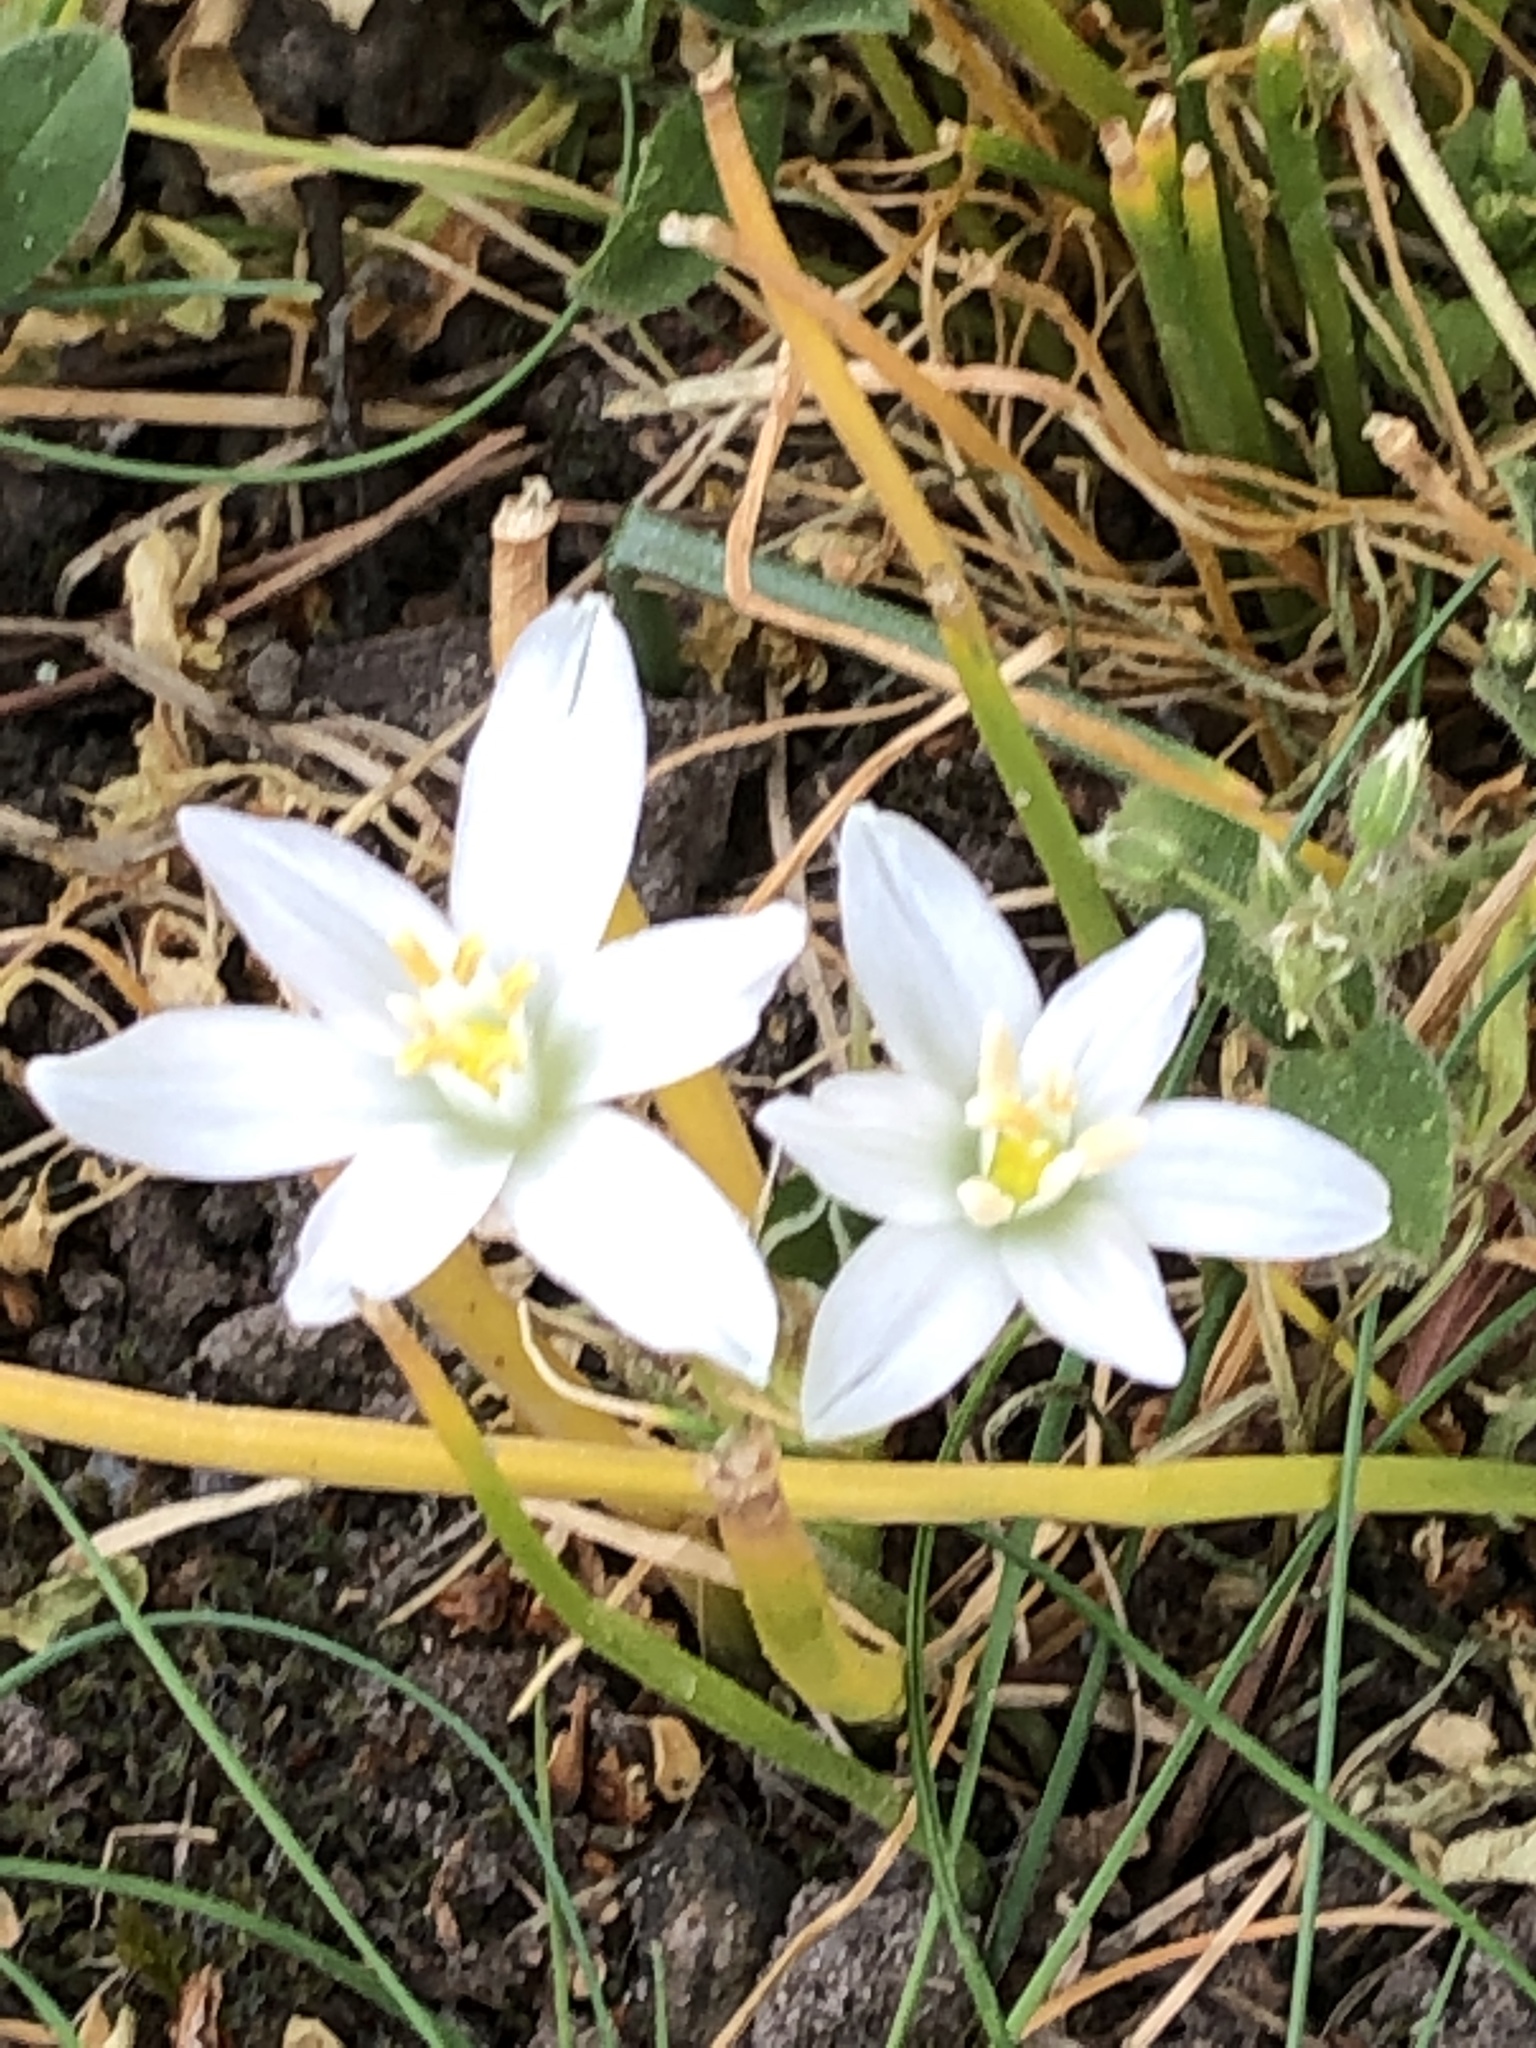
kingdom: Plantae
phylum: Tracheophyta
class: Liliopsida
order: Asparagales
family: Asparagaceae
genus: Ornithogalum
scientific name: Ornithogalum umbellatum
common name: Garden star-of-bethlehem
